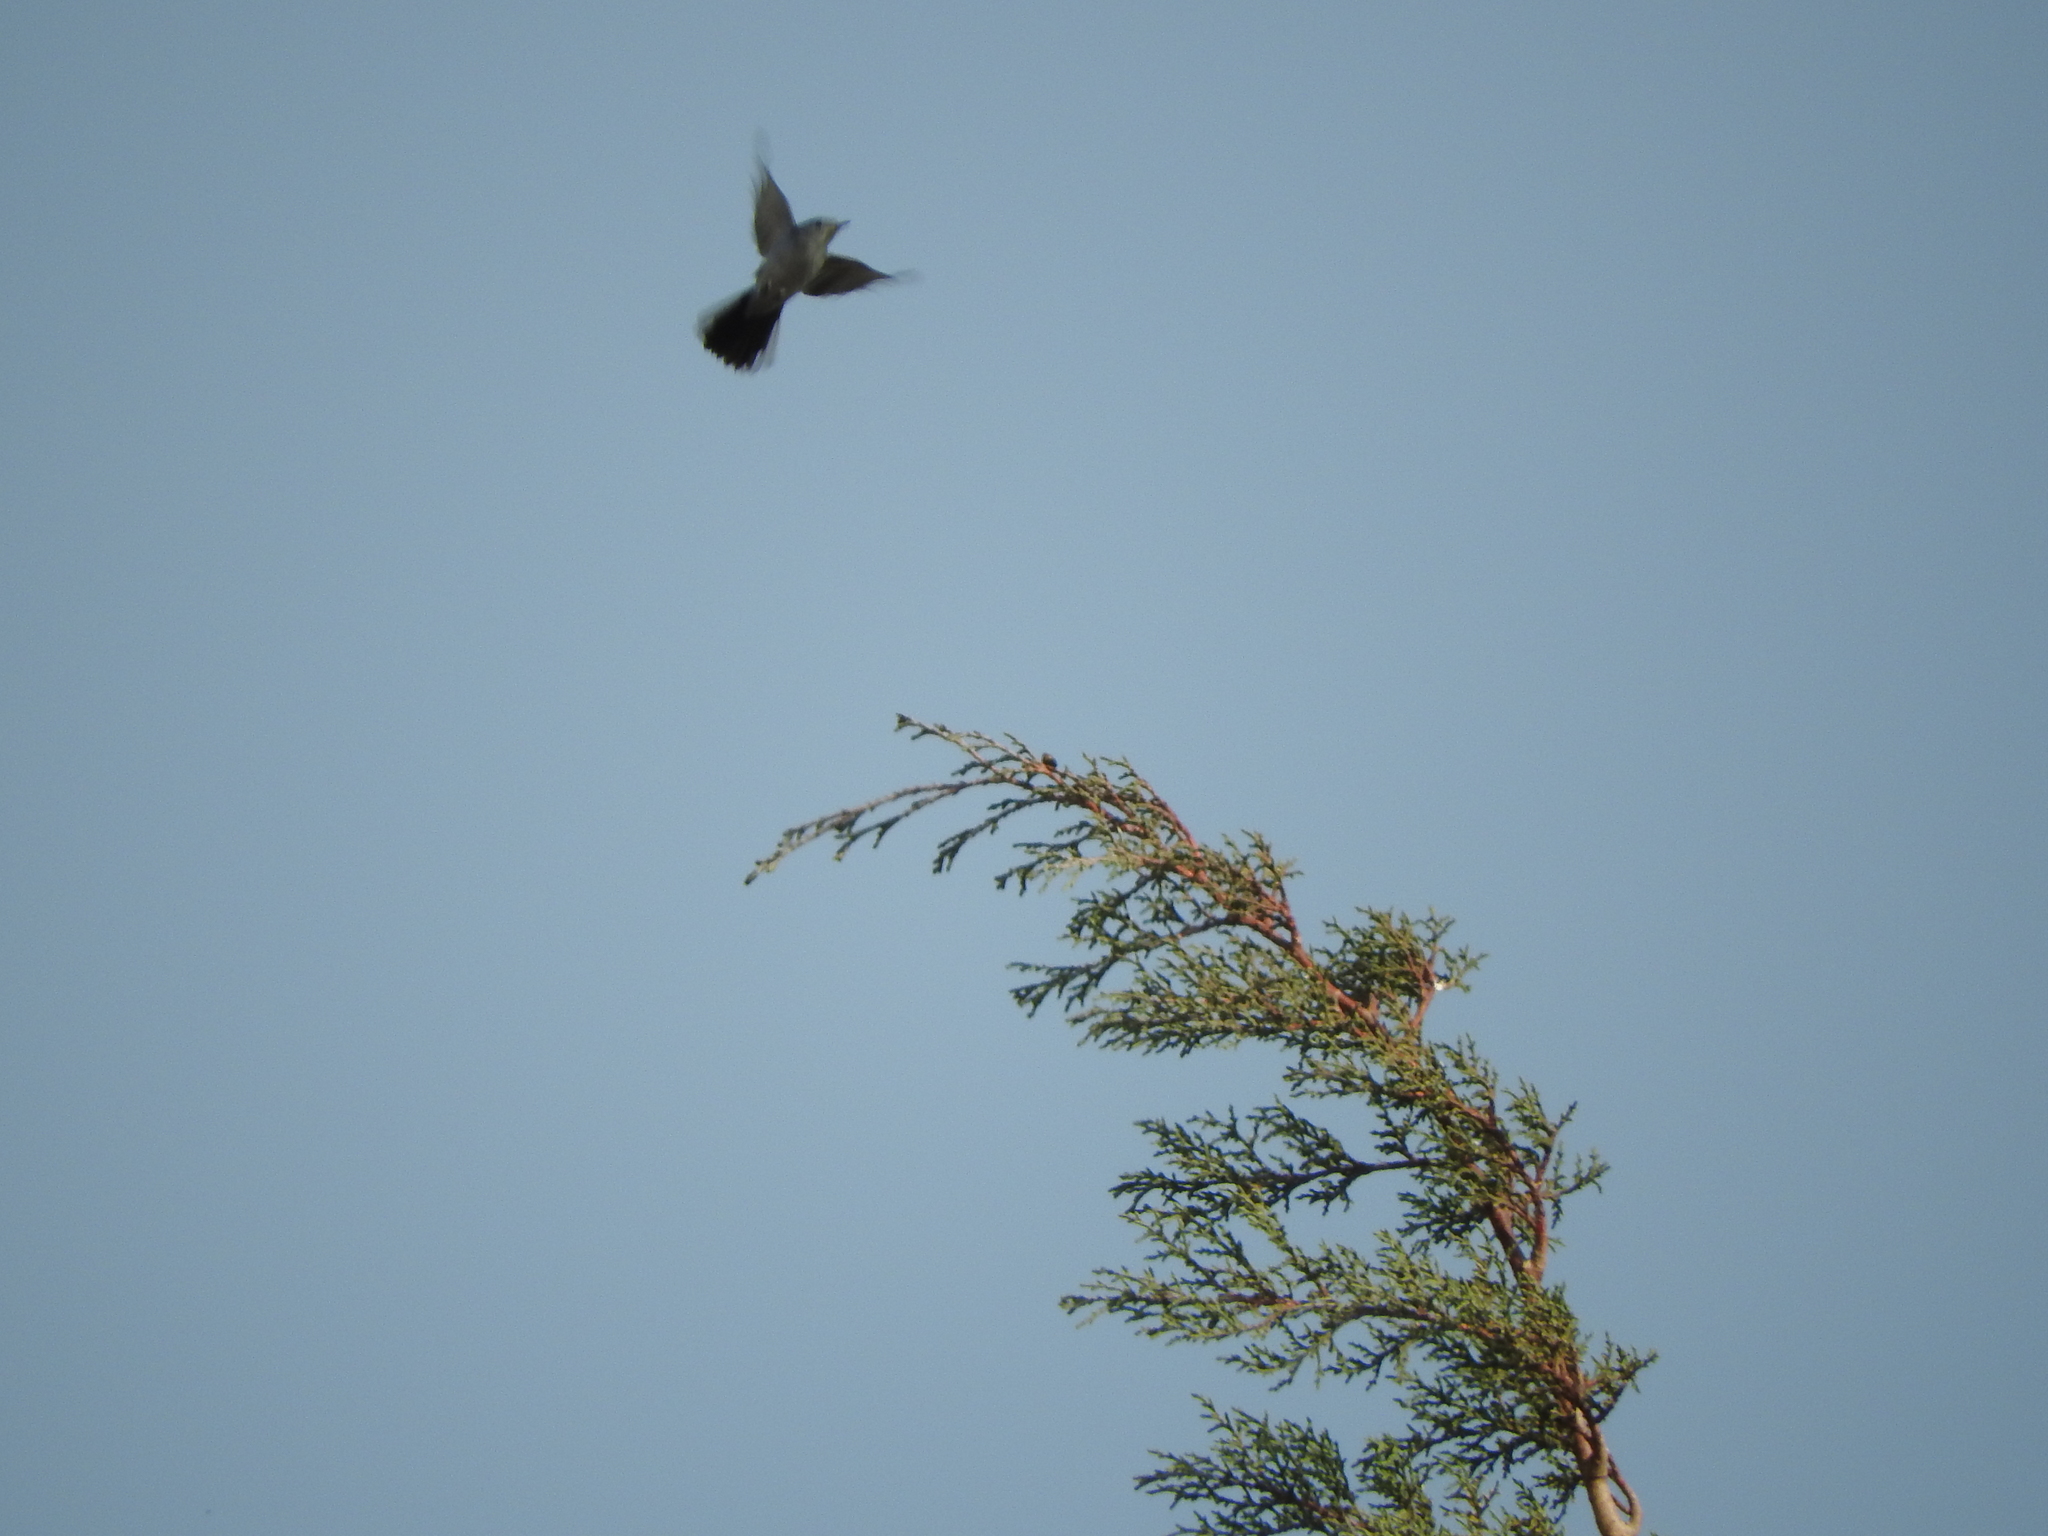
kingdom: Animalia
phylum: Chordata
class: Aves
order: Passeriformes
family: Polioptilidae
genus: Polioptila
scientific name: Polioptila caerulea
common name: Blue-gray gnatcatcher
